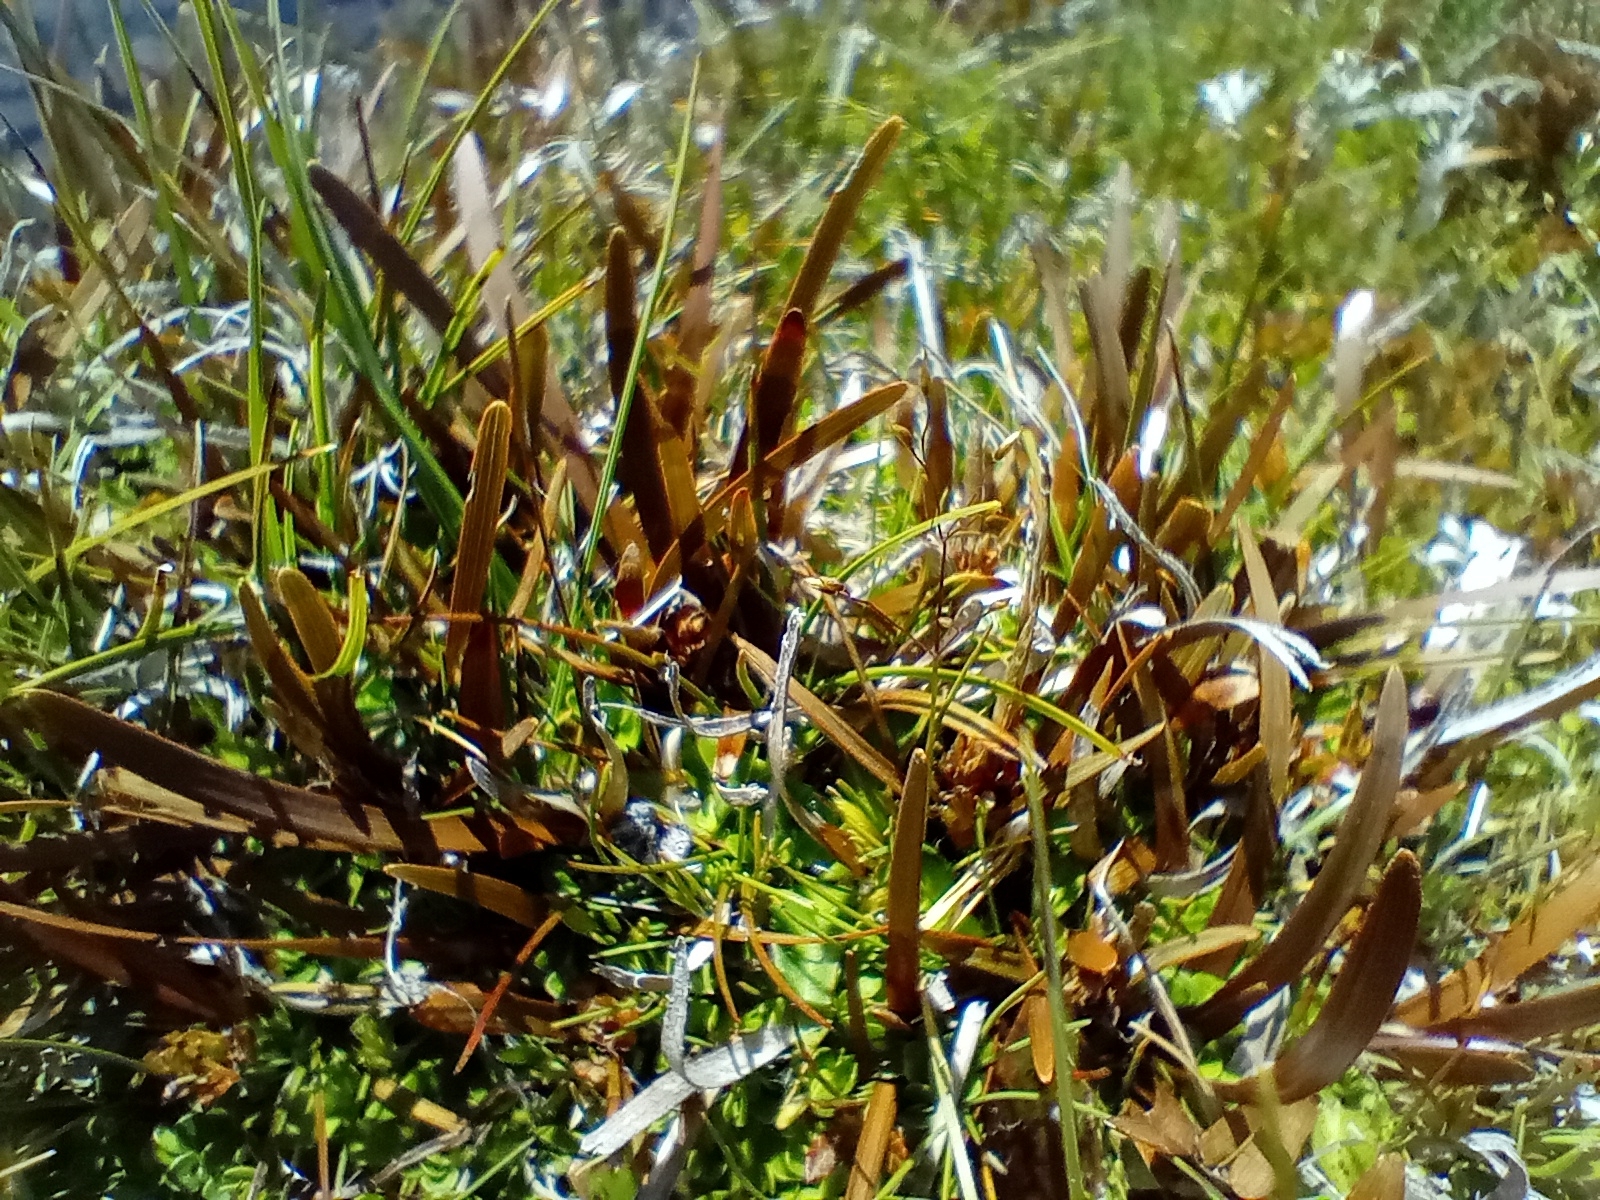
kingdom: Plantae
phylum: Tracheophyta
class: Liliopsida
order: Poales
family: Cyperaceae
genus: Carex
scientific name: Carex talbotii
